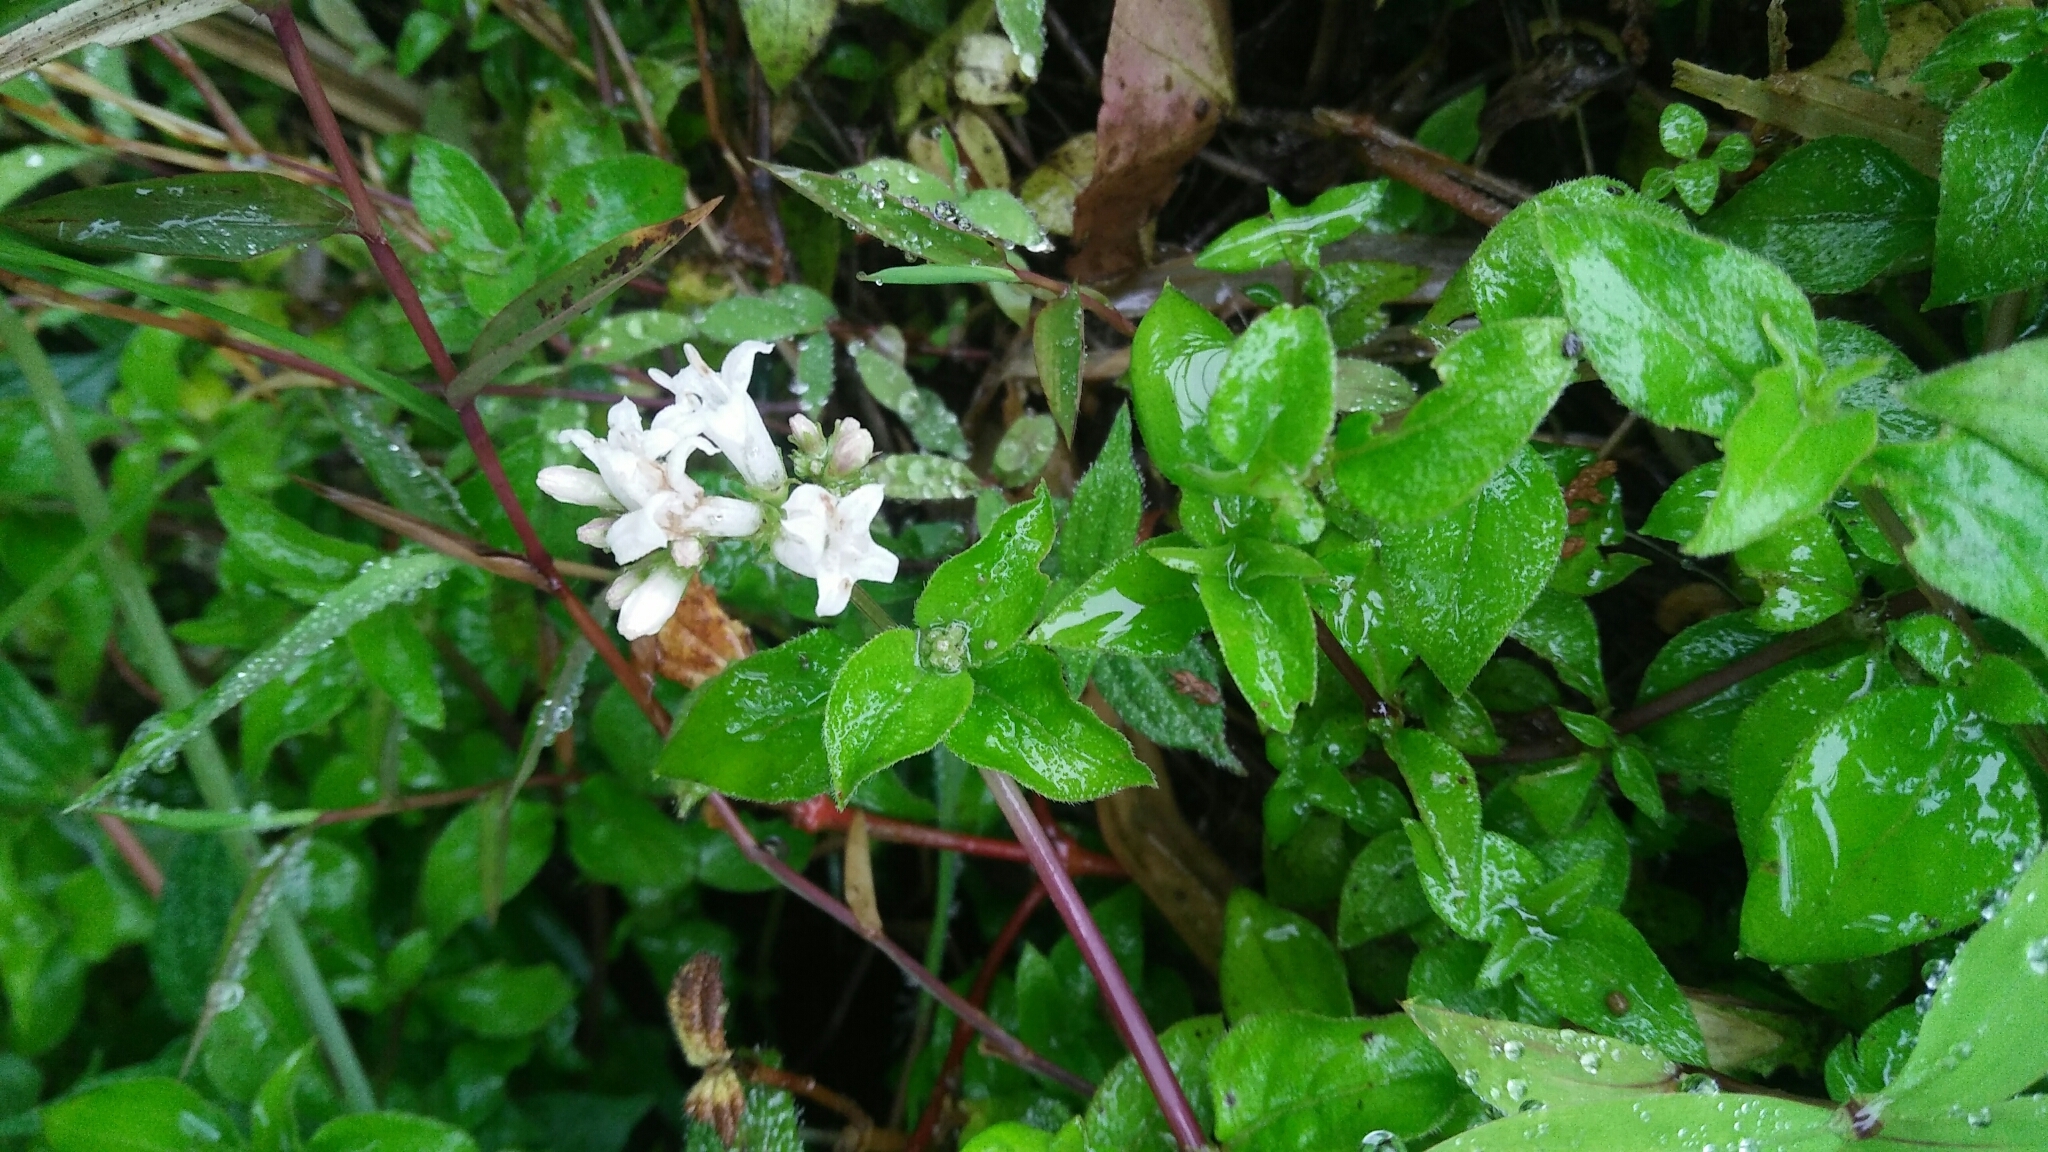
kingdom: Plantae
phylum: Tracheophyta
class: Magnoliopsida
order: Gentianales
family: Rubiaceae
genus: Neanotis
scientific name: Neanotis formosana
